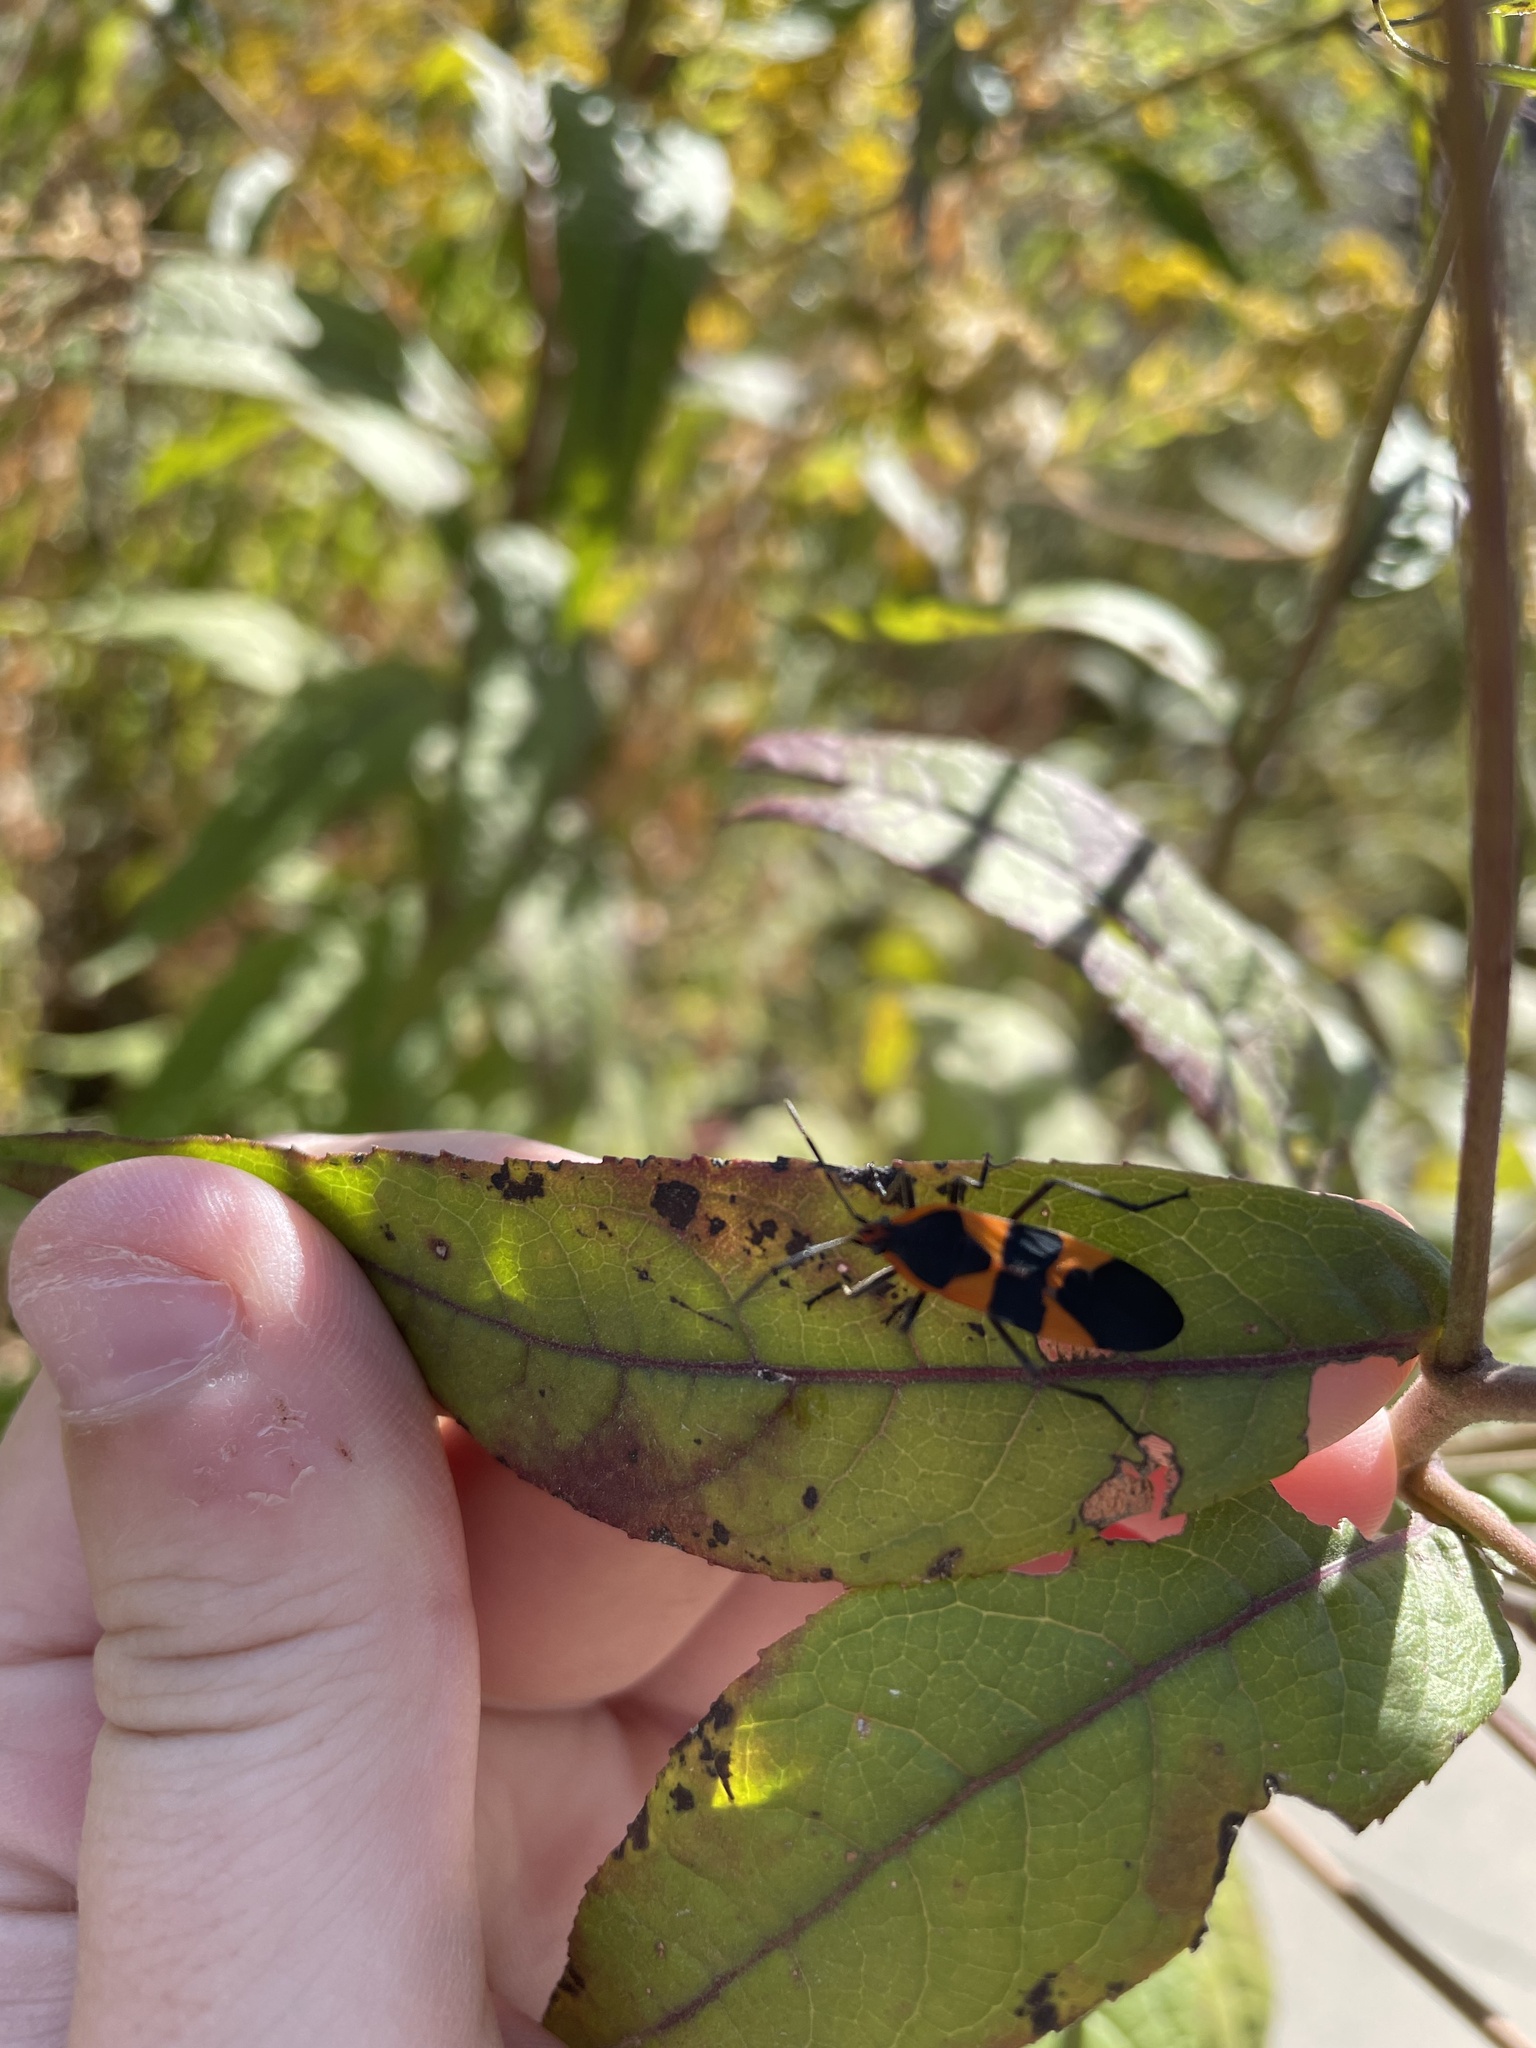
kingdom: Animalia
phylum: Arthropoda
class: Insecta
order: Hemiptera
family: Lygaeidae
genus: Oncopeltus
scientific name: Oncopeltus fasciatus
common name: Large milkweed bug
